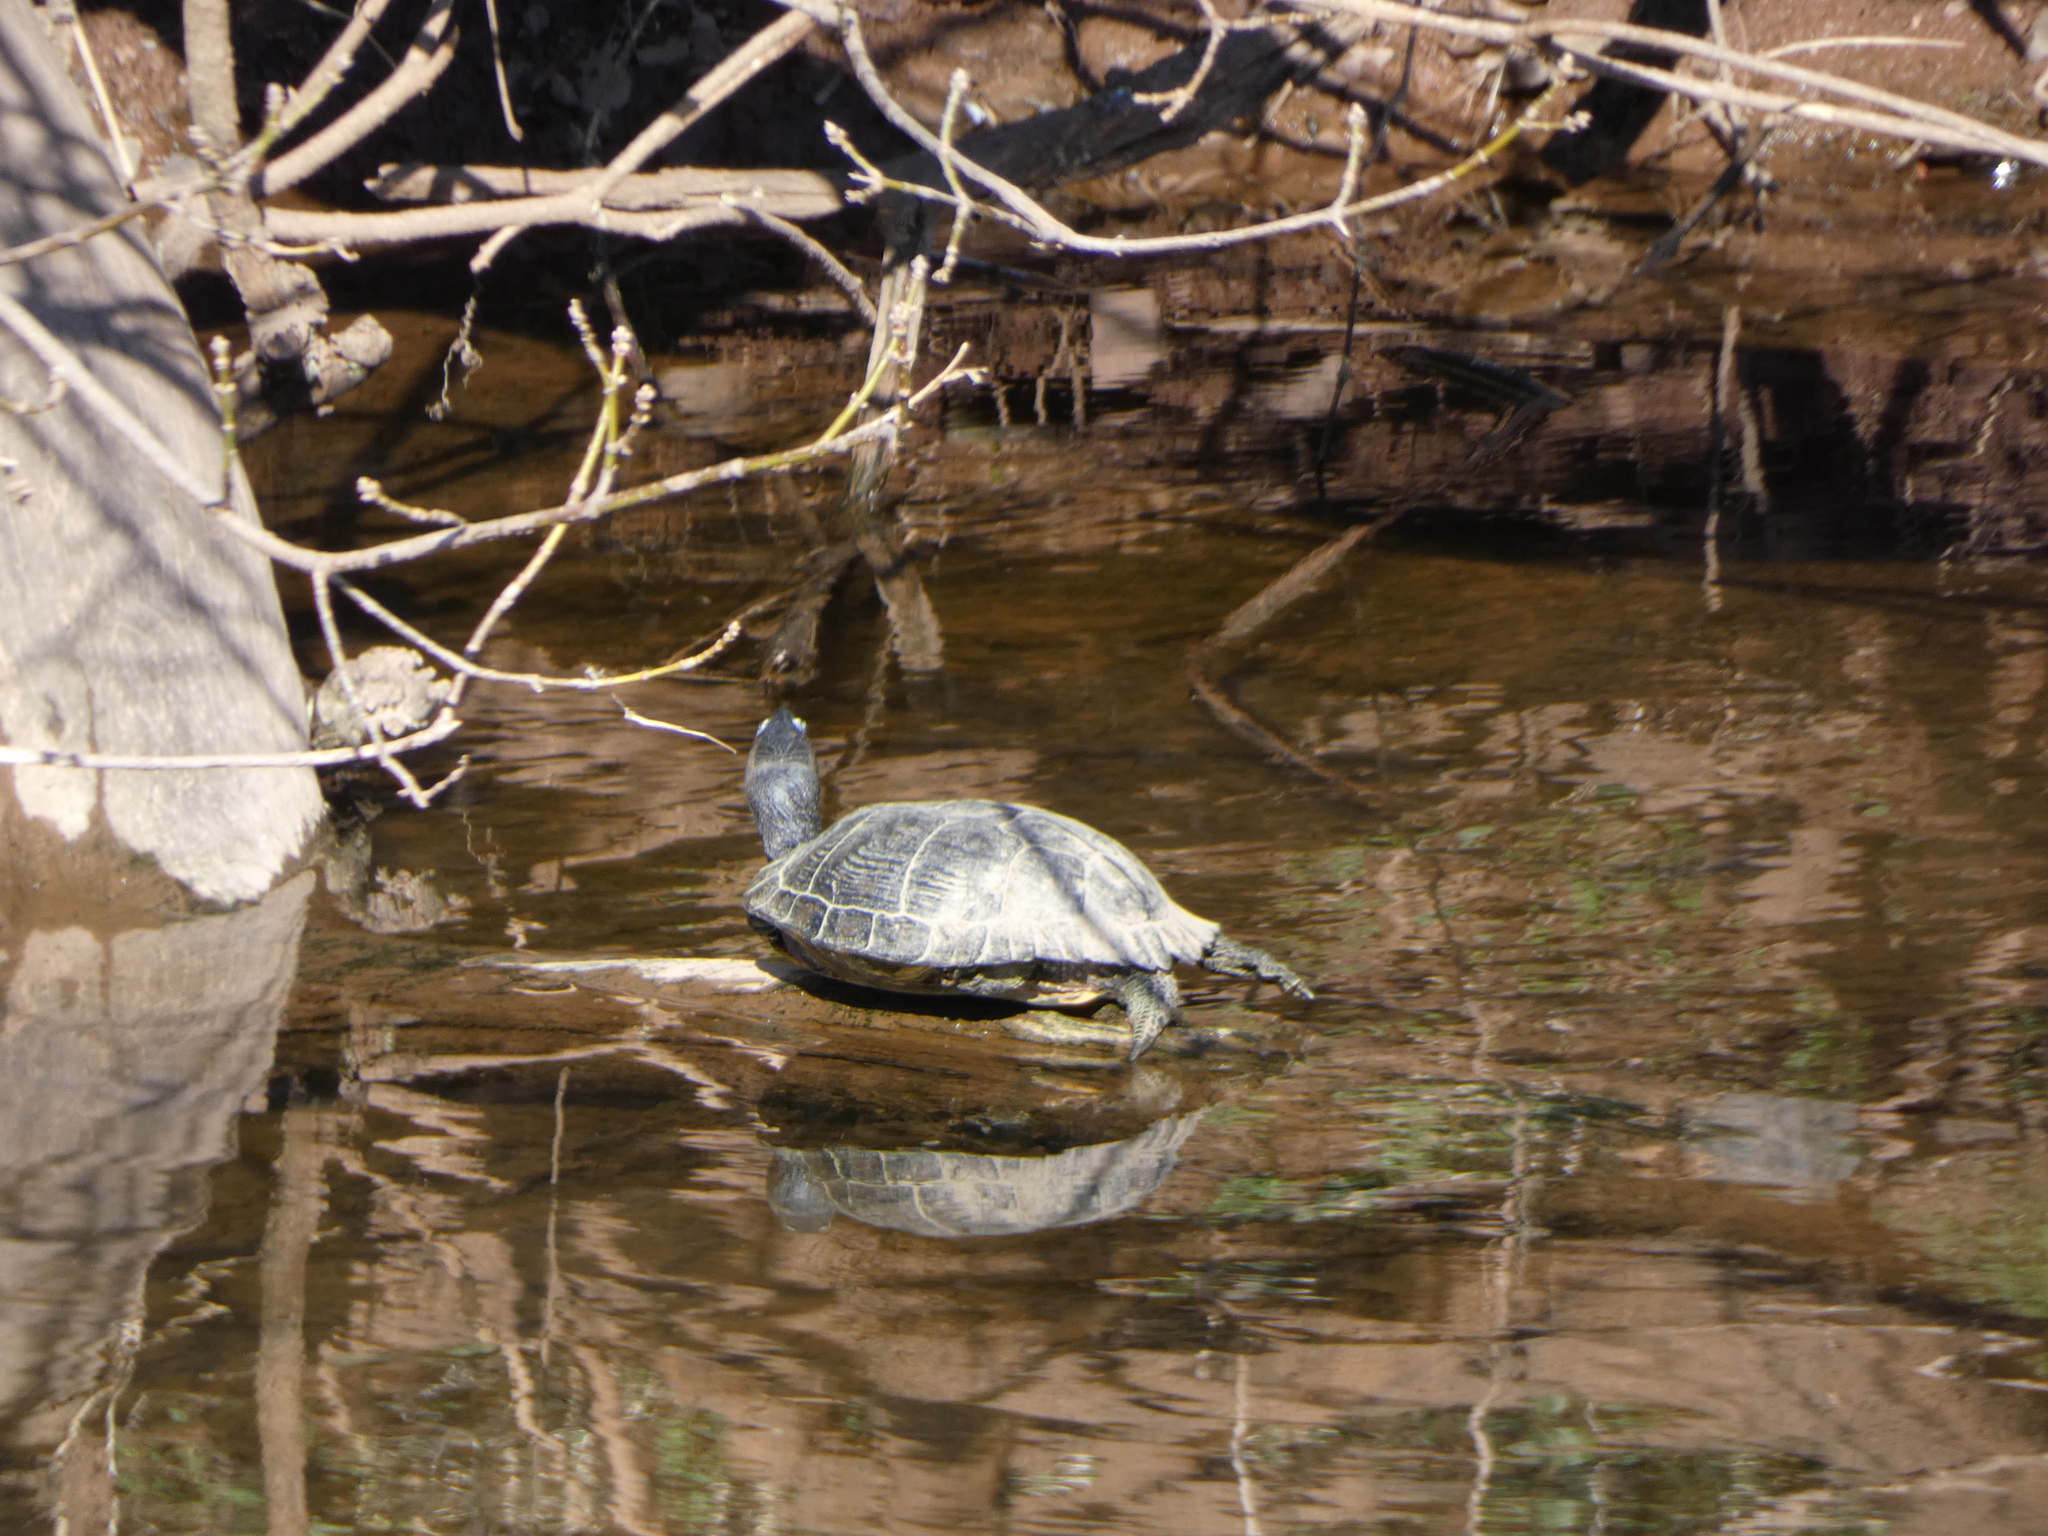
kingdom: Animalia
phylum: Chordata
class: Testudines
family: Emydidae
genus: Trachemys
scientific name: Trachemys scripta
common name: Slider
